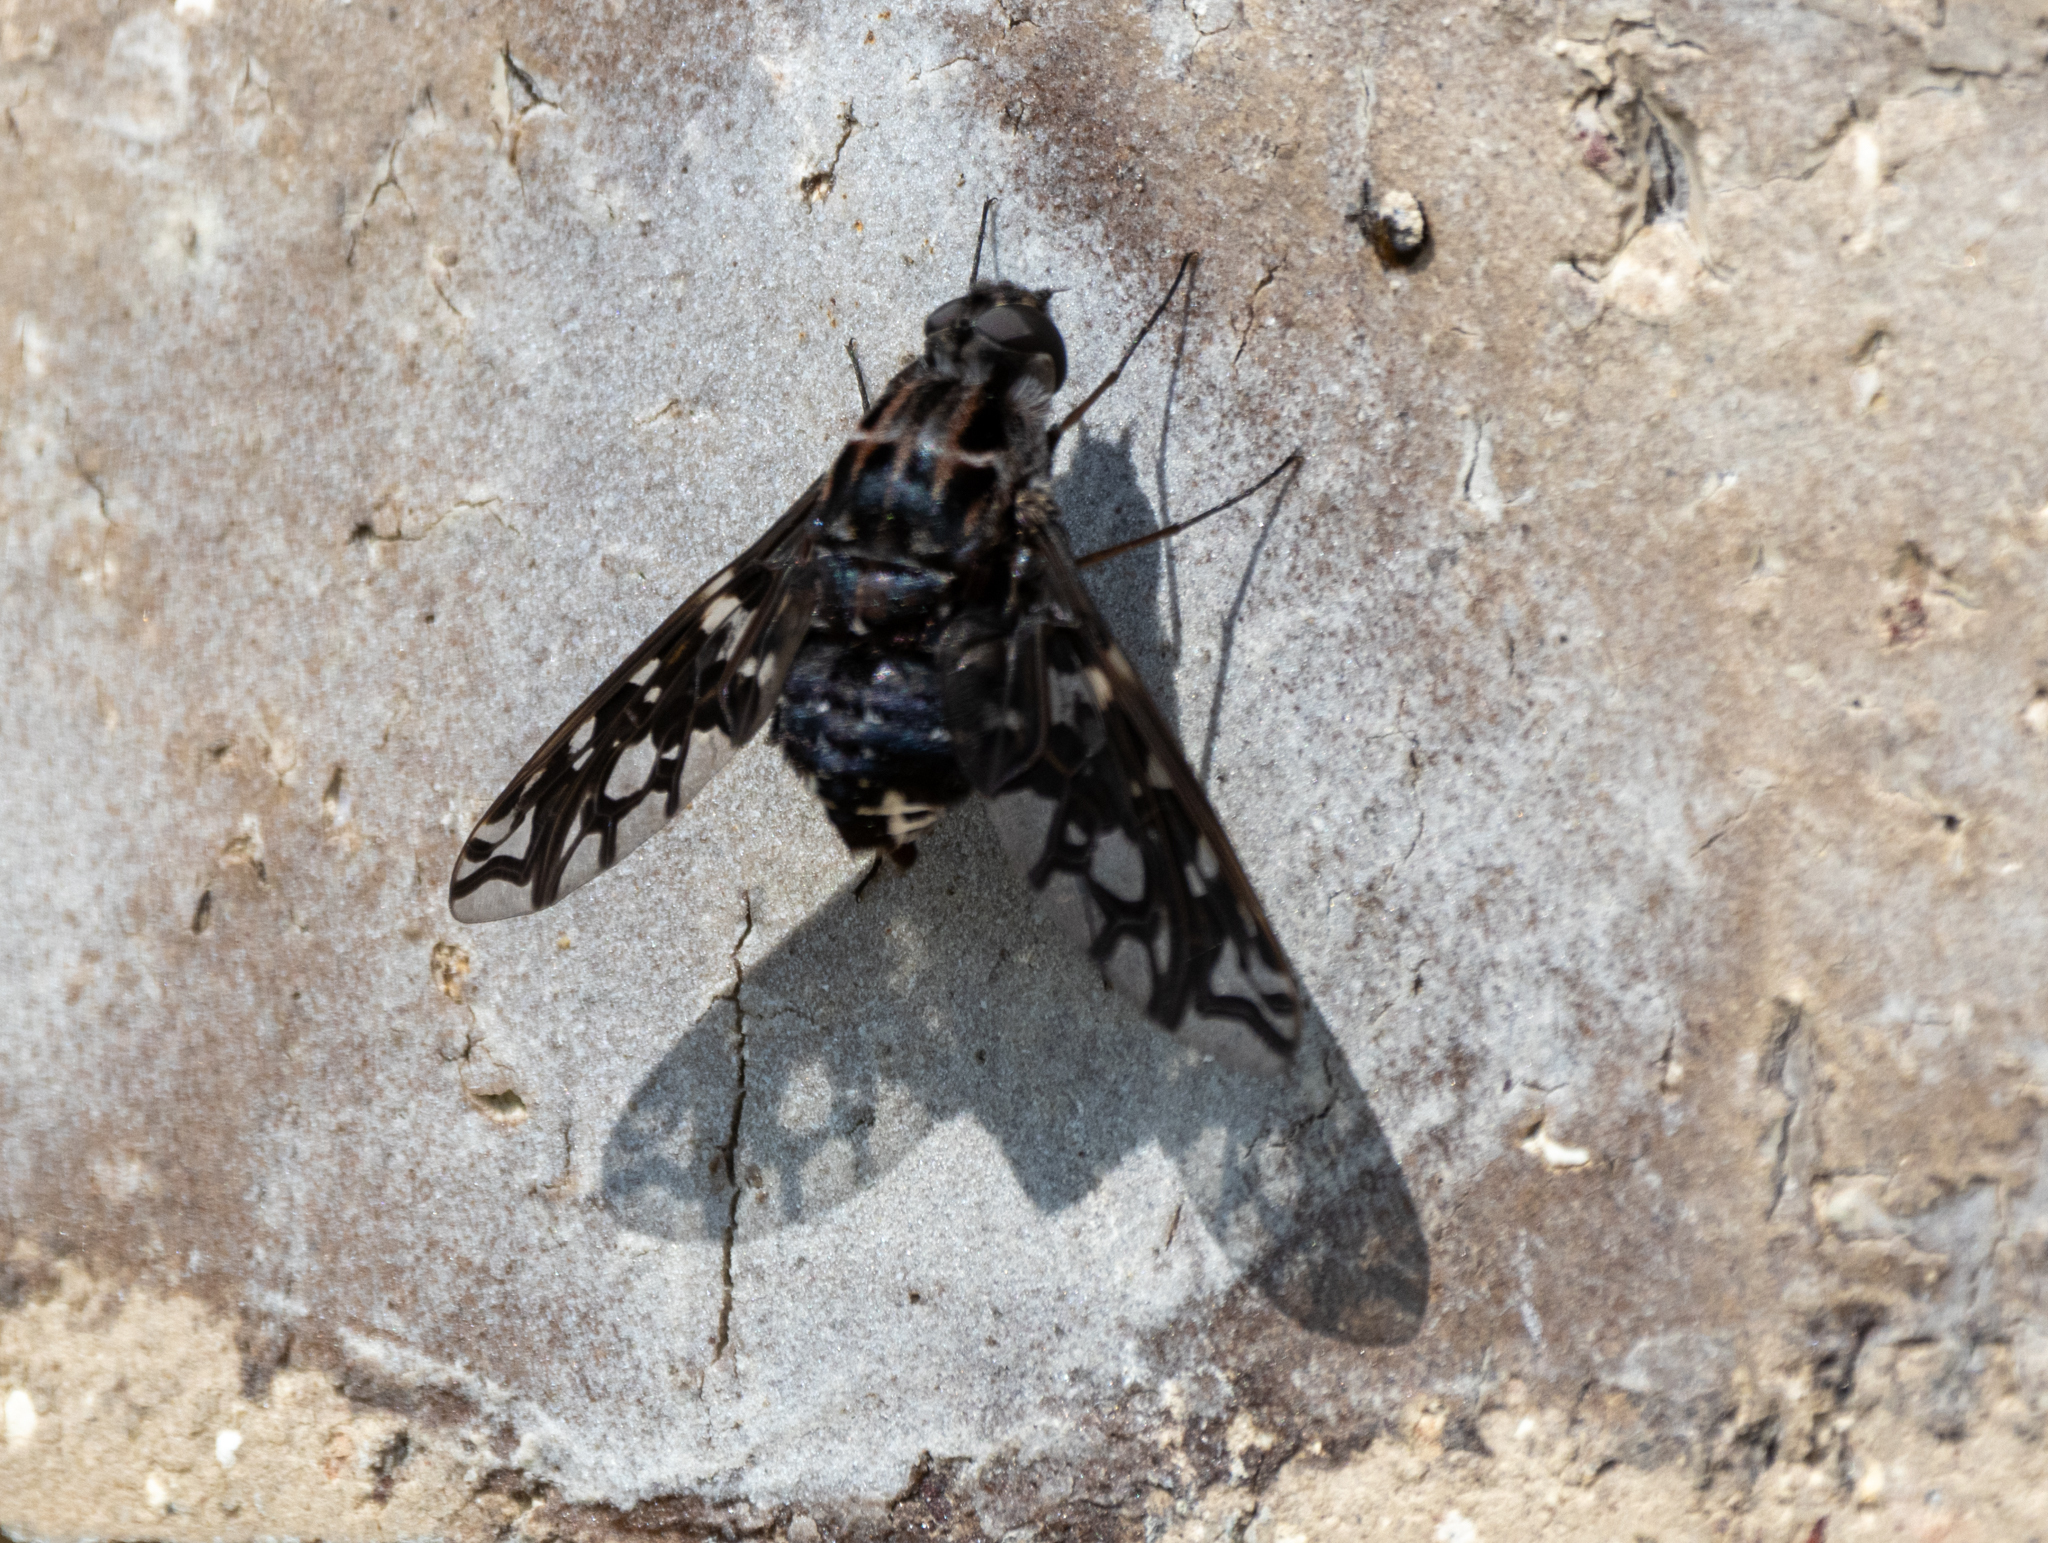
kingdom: Animalia
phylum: Arthropoda
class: Insecta
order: Diptera
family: Bombyliidae
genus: Xenox
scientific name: Xenox tigrinus
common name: Tiger bee fly
